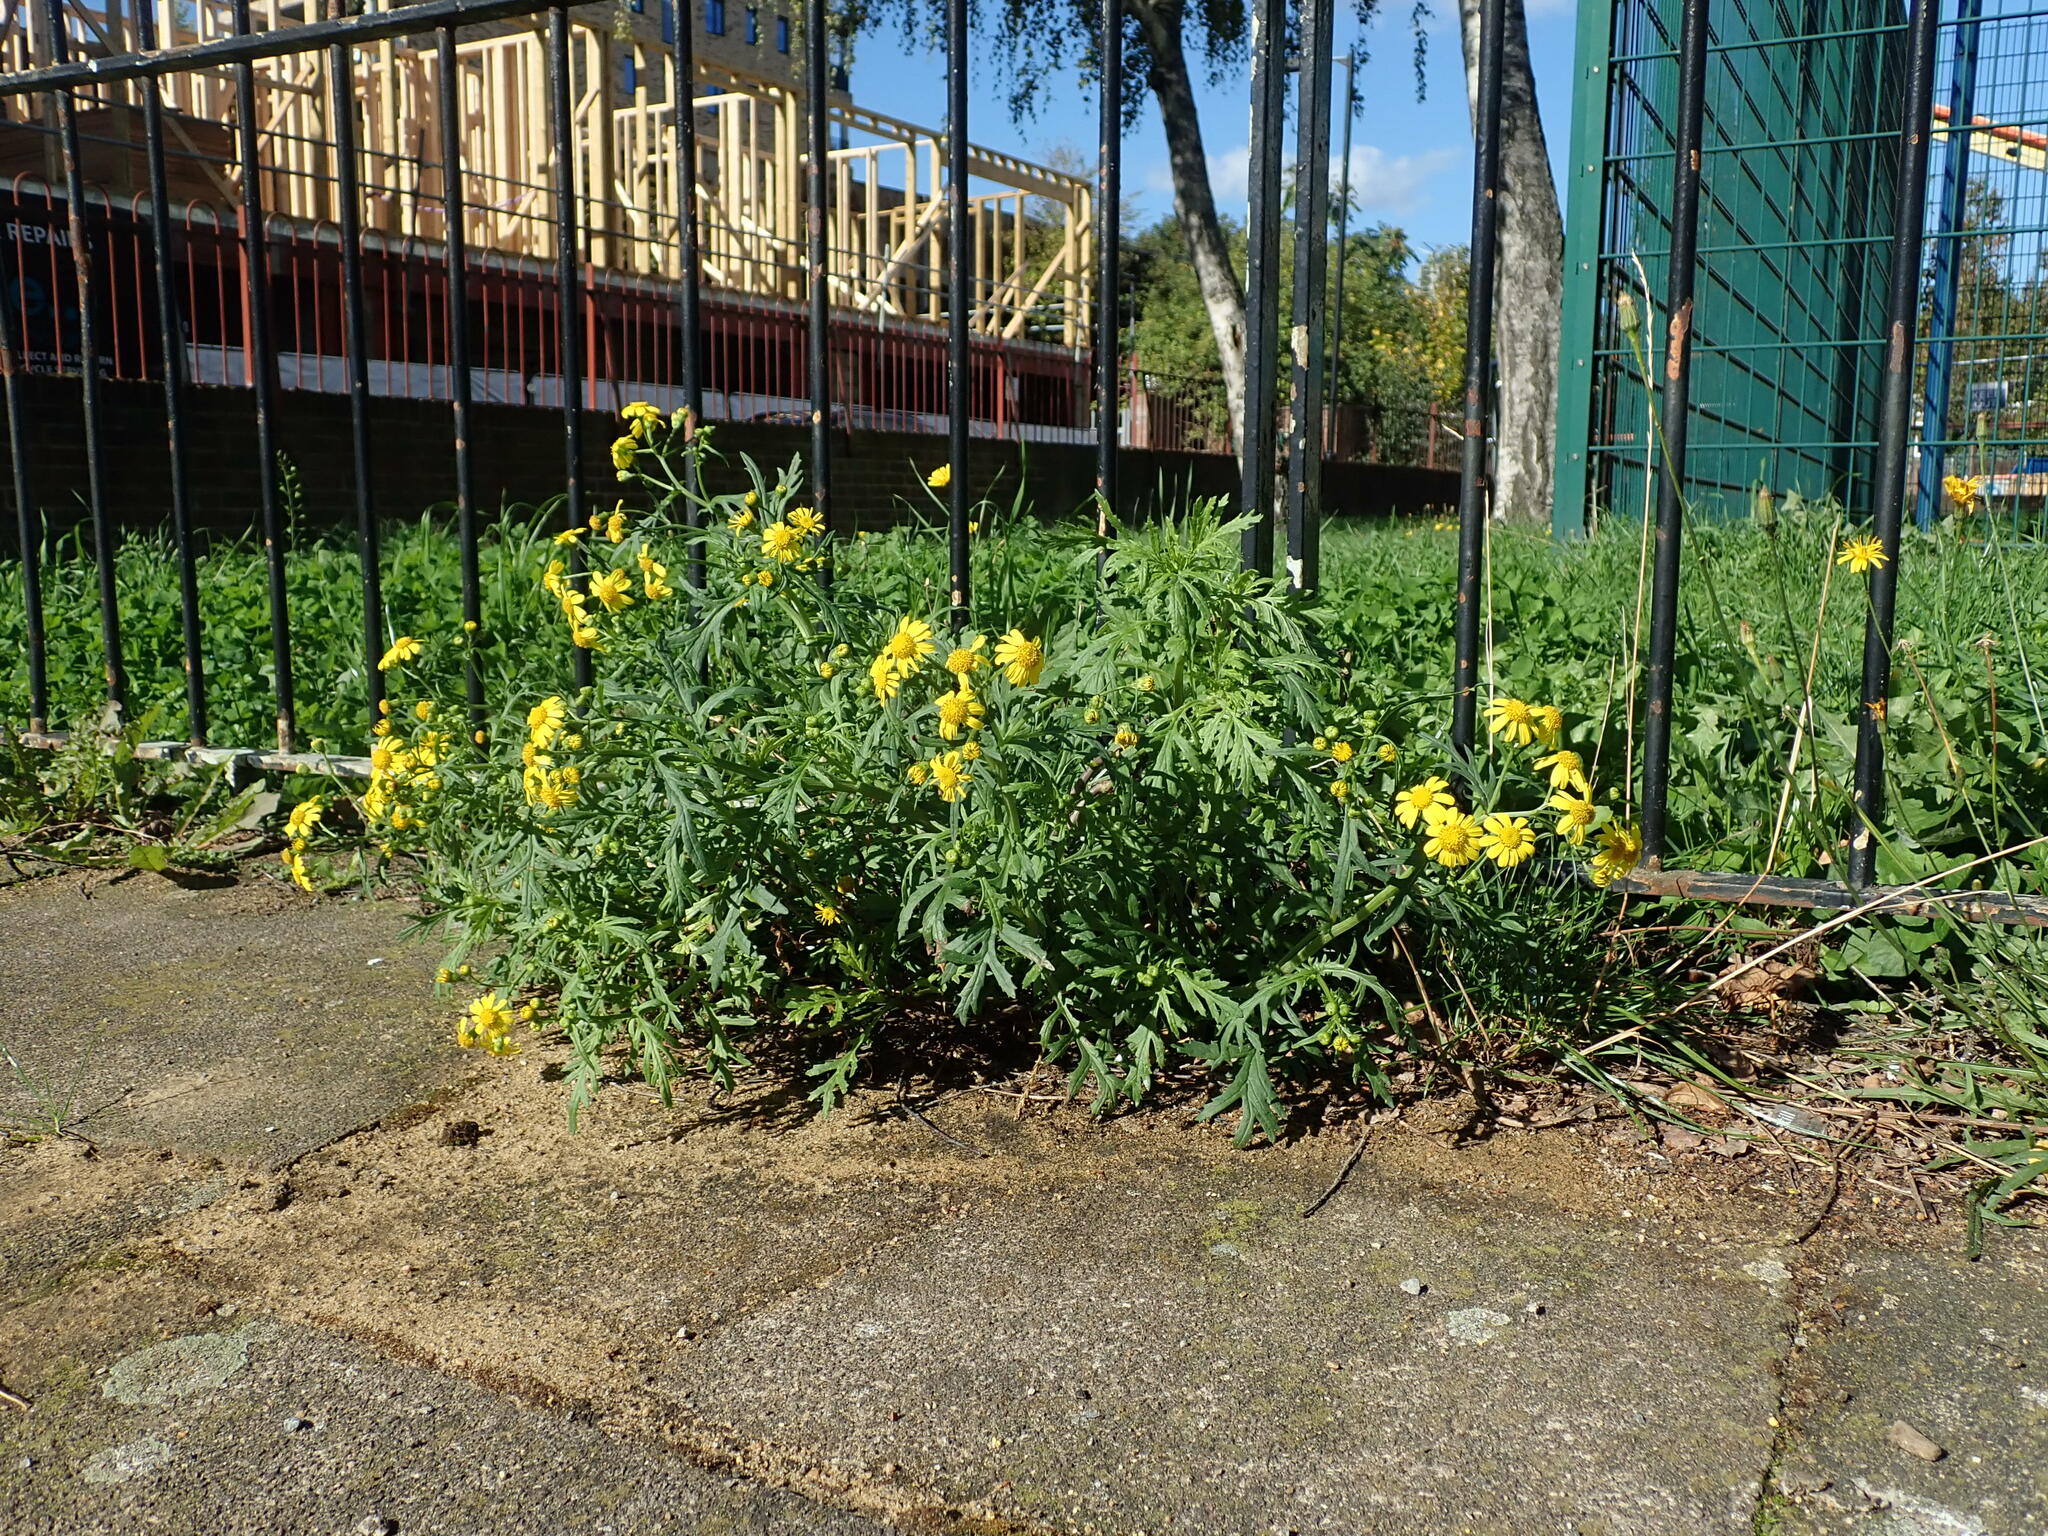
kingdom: Plantae
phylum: Tracheophyta
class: Magnoliopsida
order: Asterales
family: Asteraceae
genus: Senecio
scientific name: Senecio squalidus
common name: Oxford ragwort
